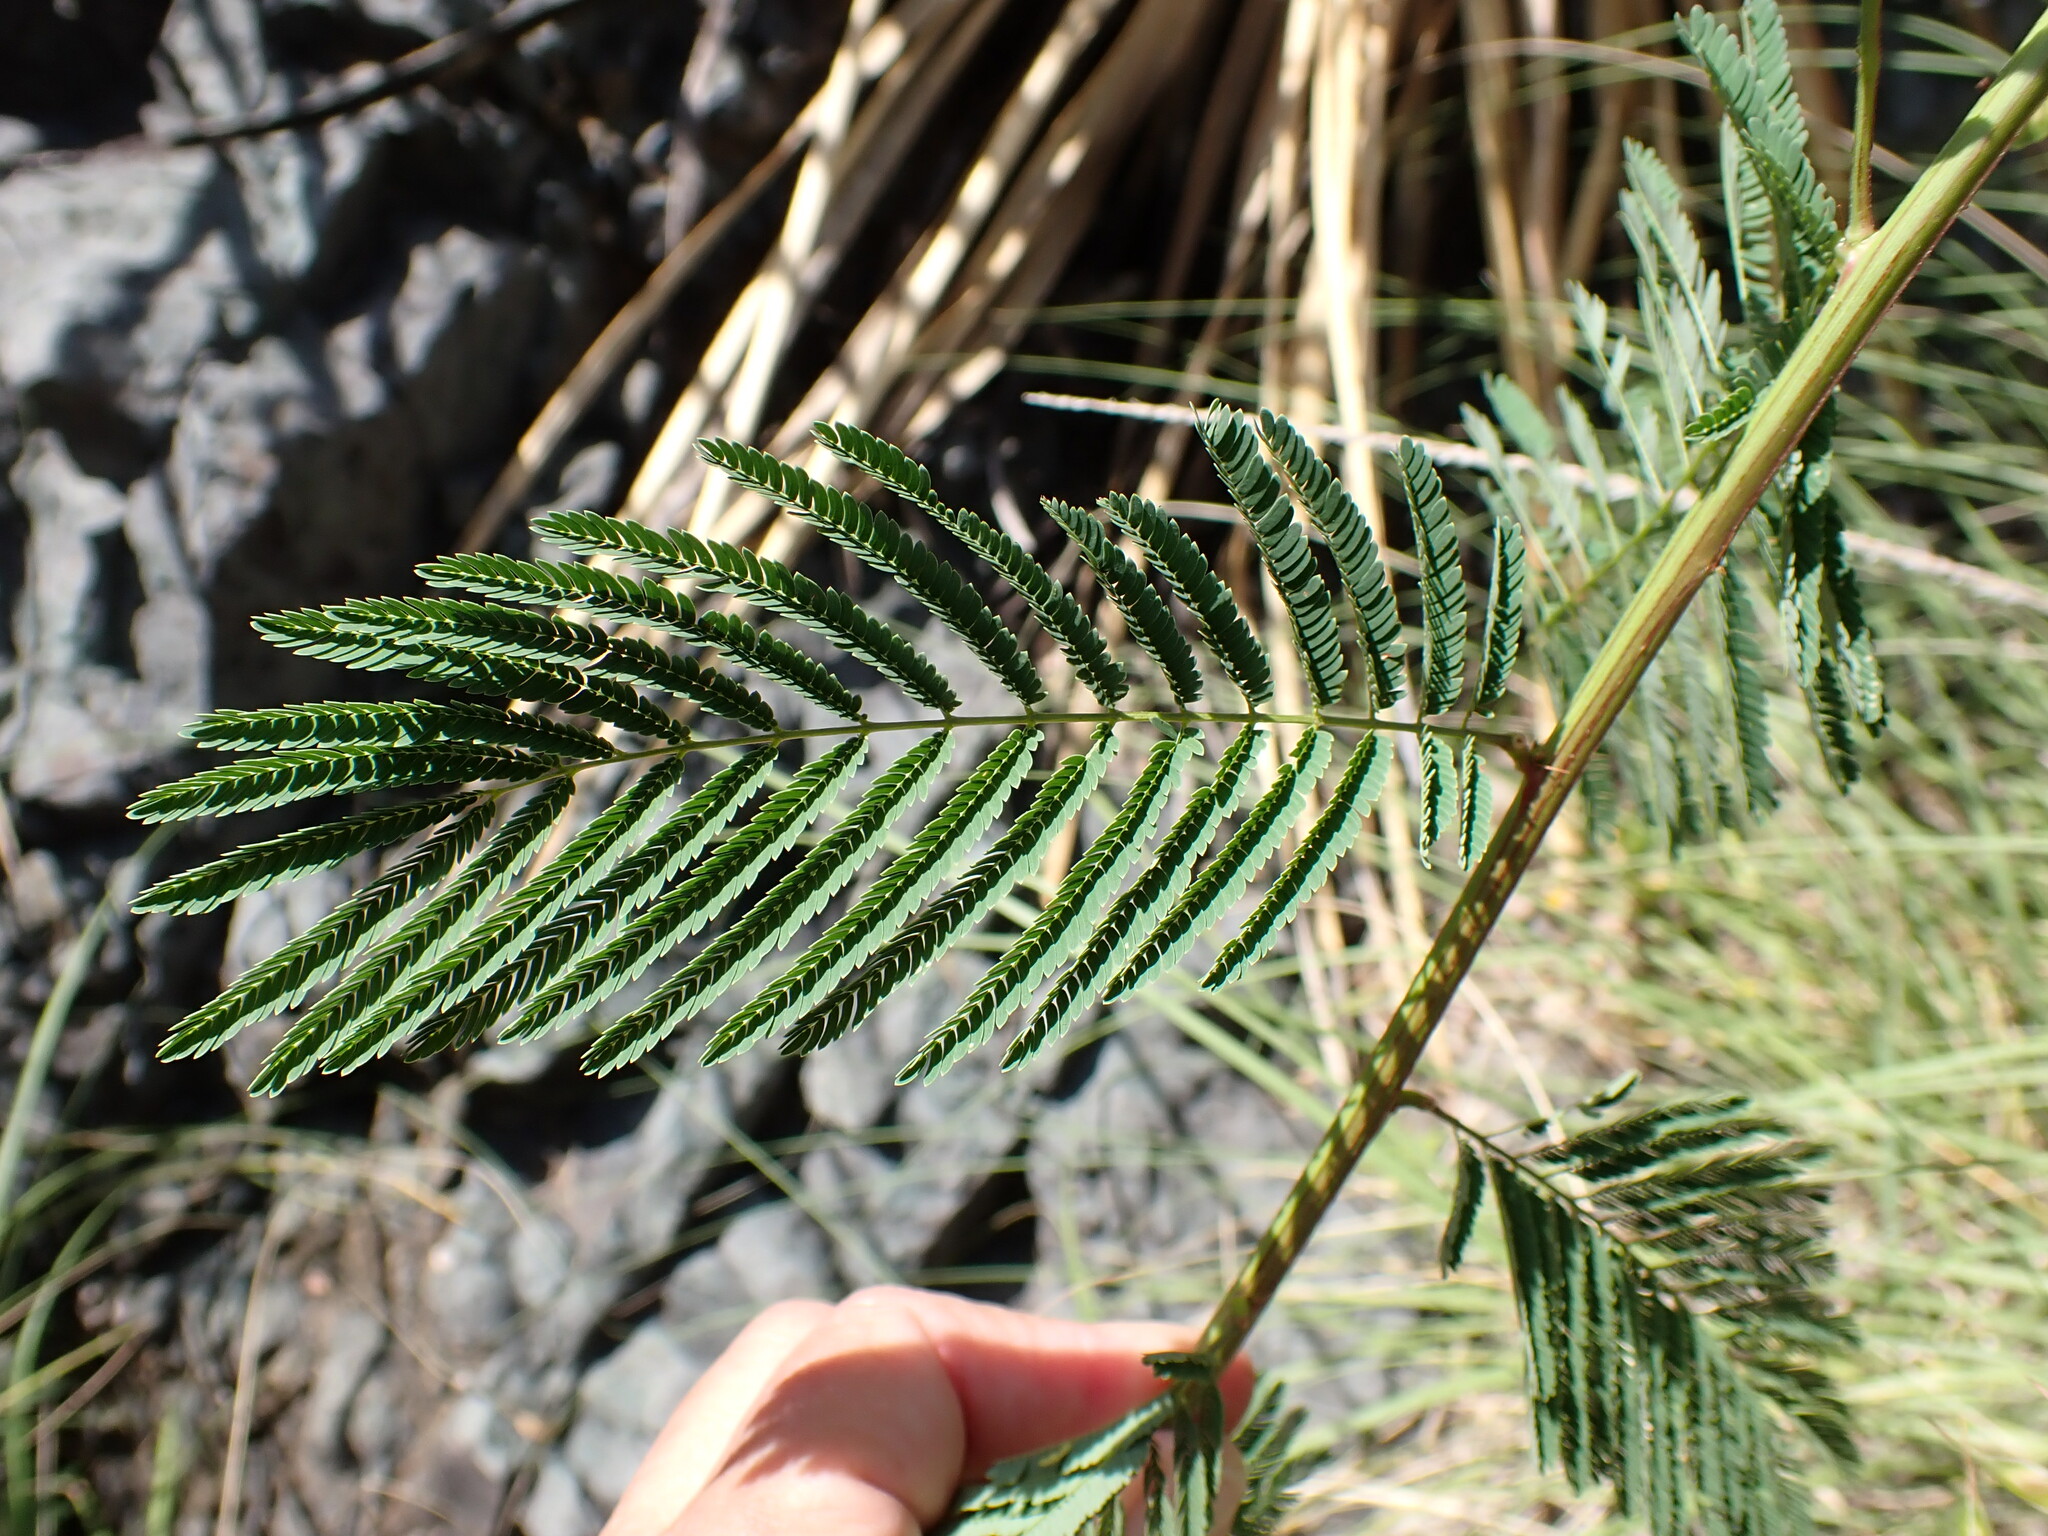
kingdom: Plantae
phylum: Tracheophyta
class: Magnoliopsida
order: Fabales
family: Fabaceae
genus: Desmanthus
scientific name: Desmanthus bicornutus
